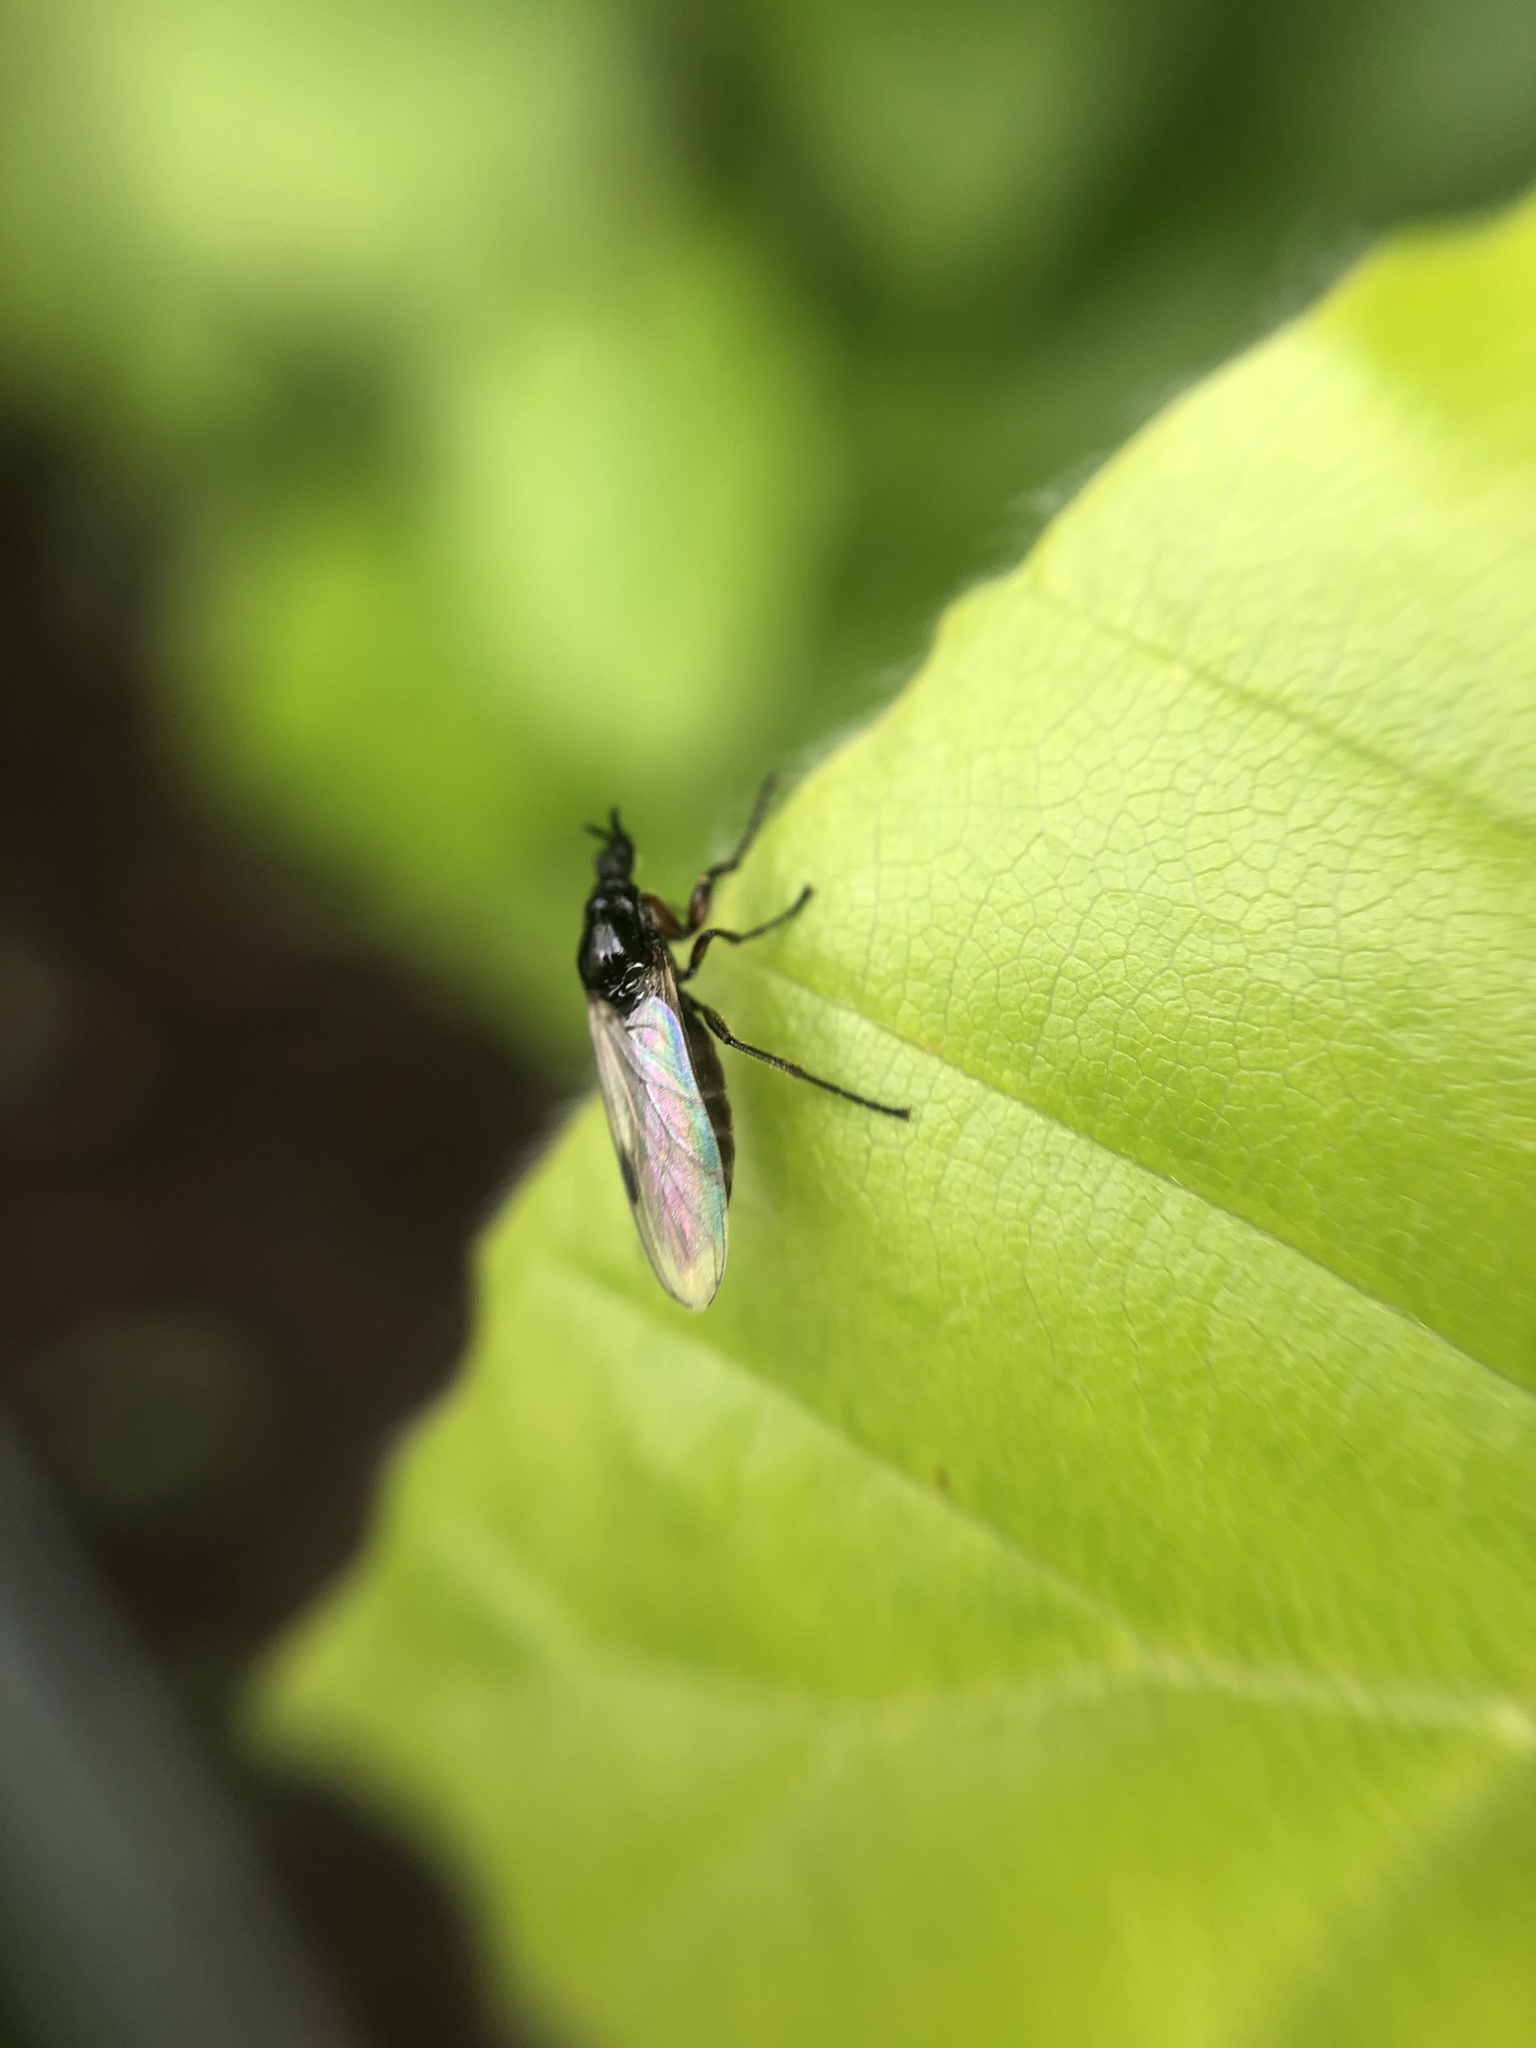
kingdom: Animalia
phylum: Arthropoda
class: Insecta
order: Diptera
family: Bibionidae
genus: Dilophus
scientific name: Dilophus femoratus
